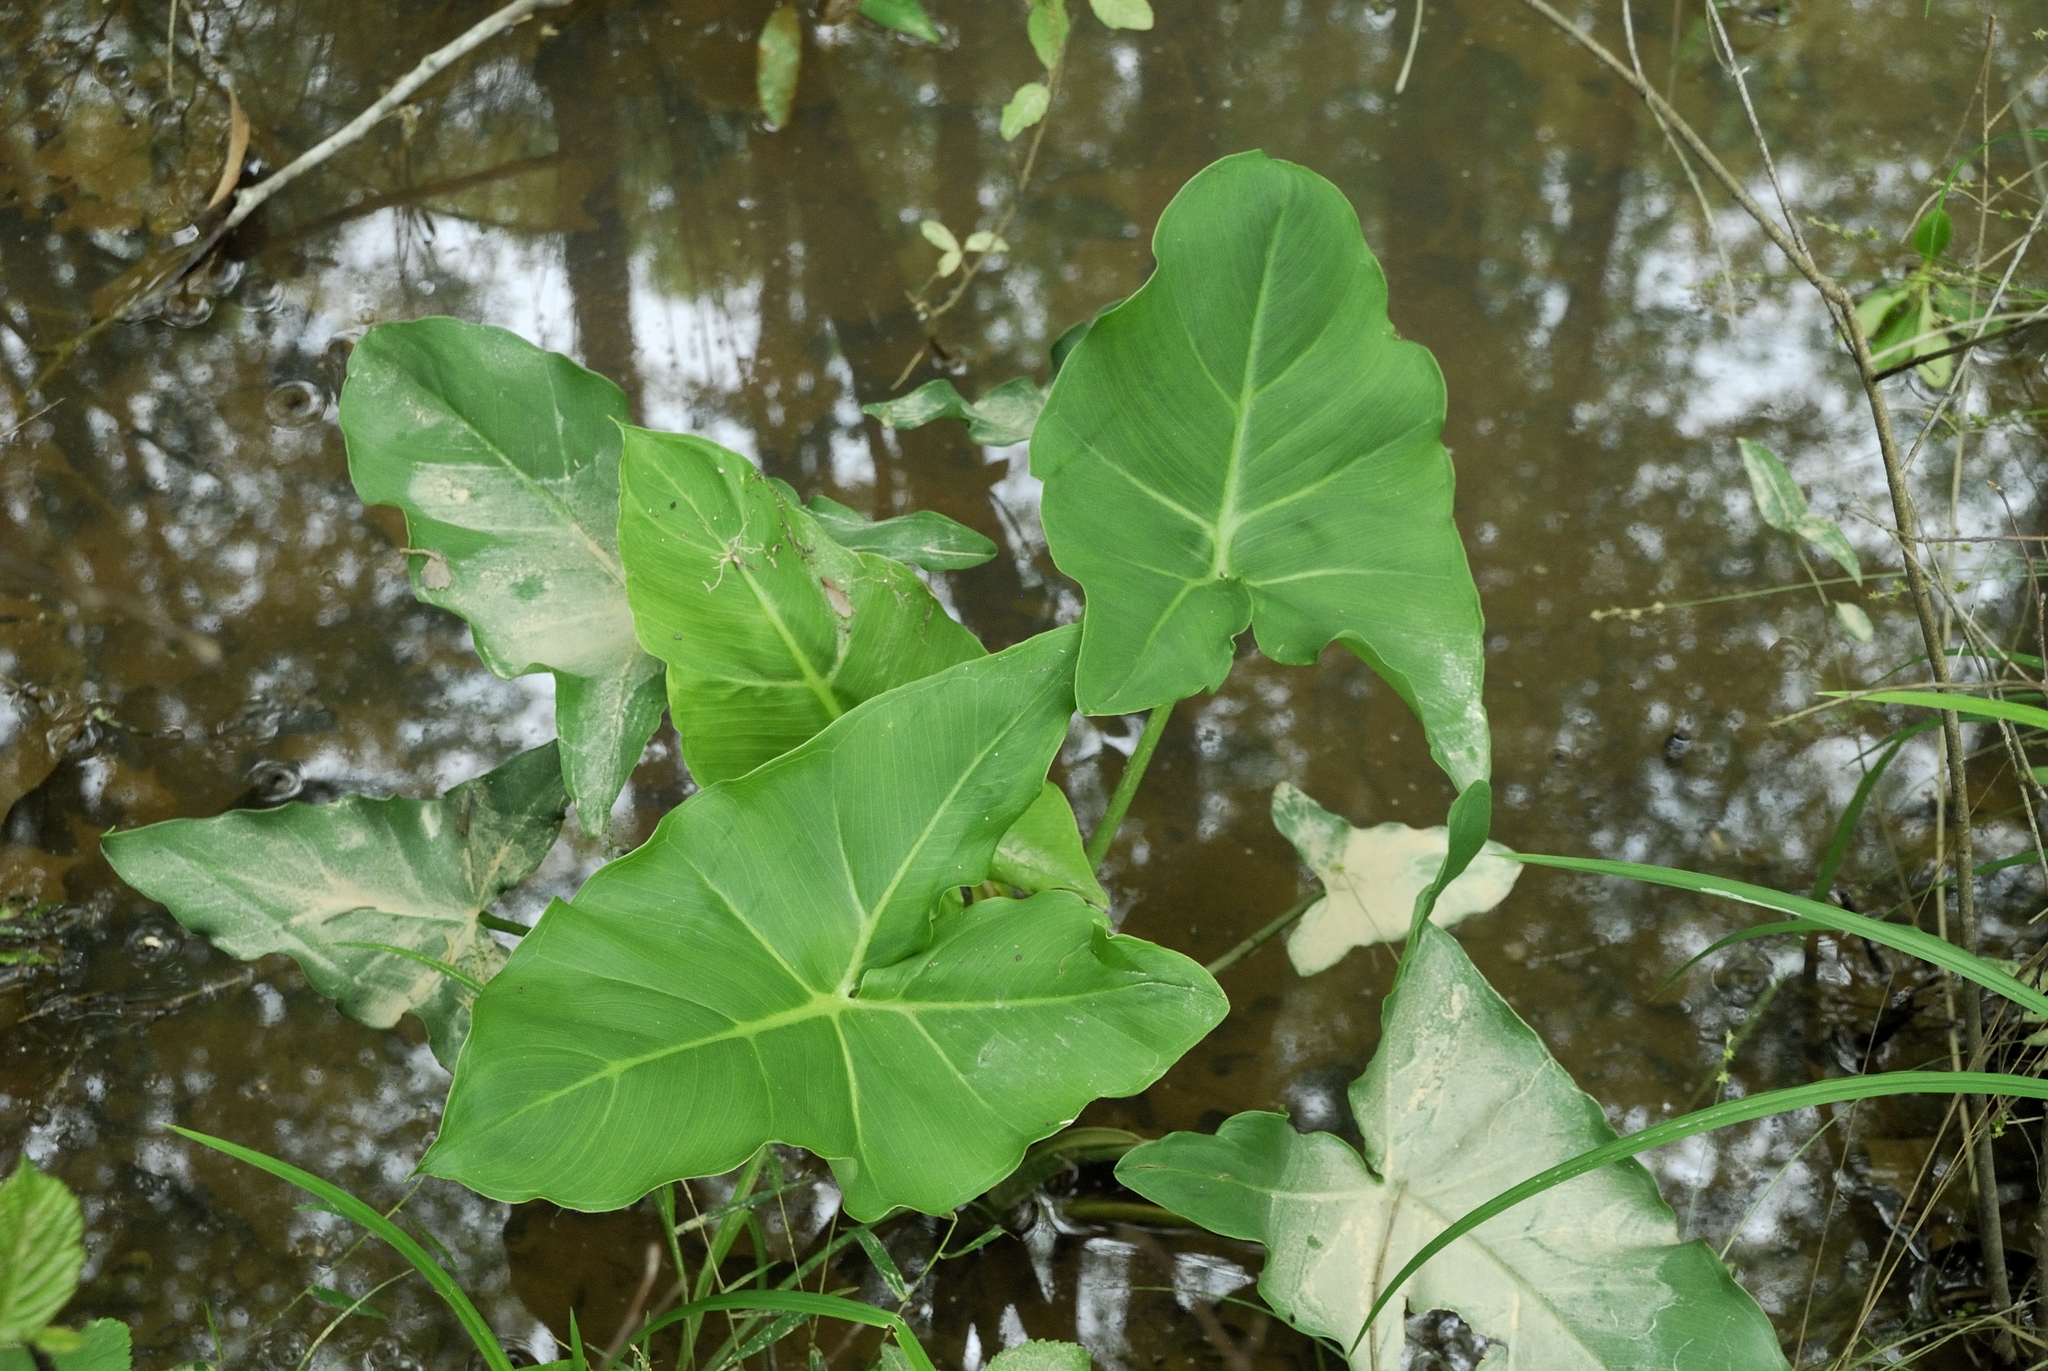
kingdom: Plantae
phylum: Tracheophyta
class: Liliopsida
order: Alismatales
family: Araceae
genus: Peltandra
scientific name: Peltandra virginica
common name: Arrow arum
